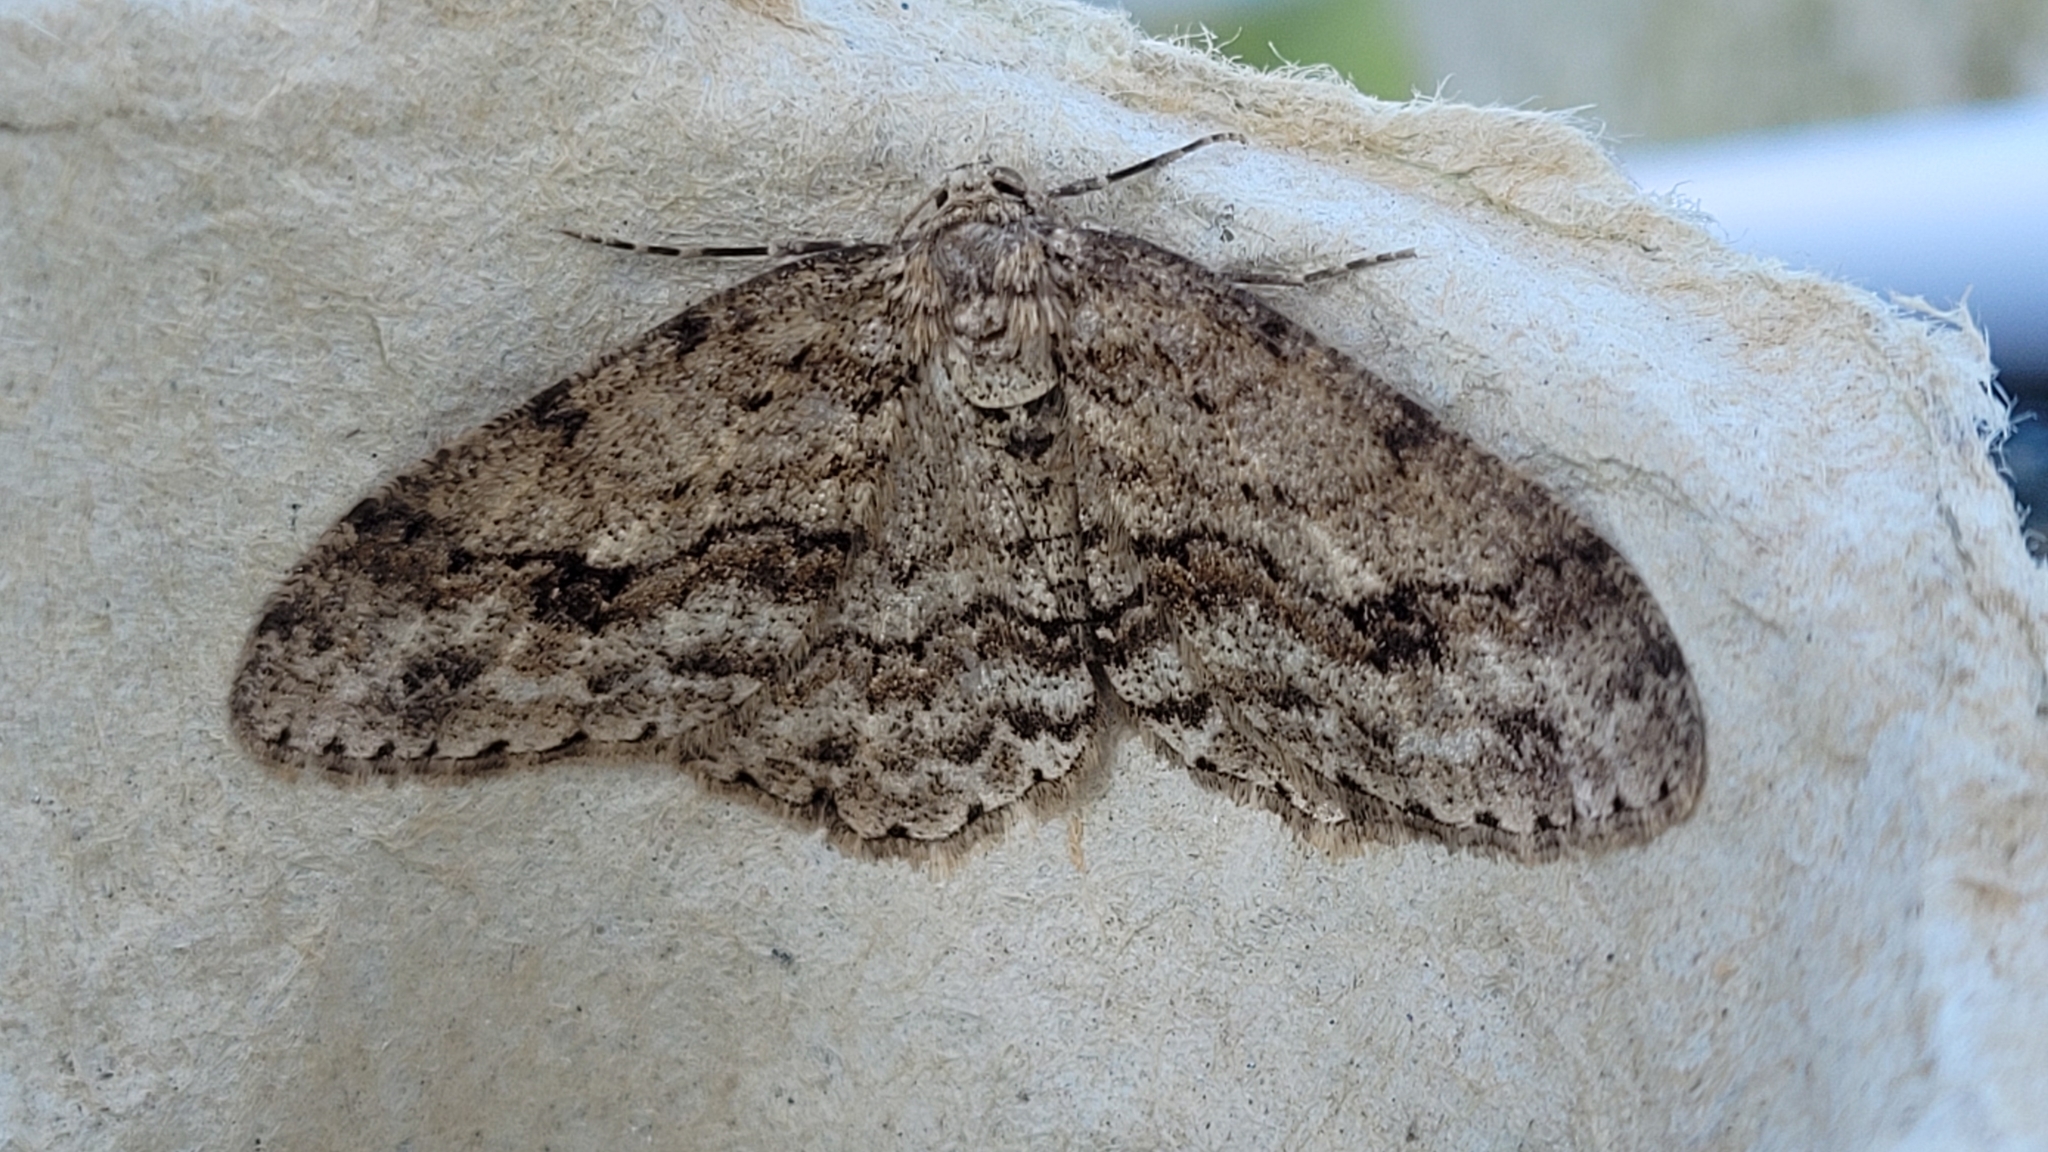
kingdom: Animalia
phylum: Arthropoda
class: Insecta
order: Lepidoptera
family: Geometridae
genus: Ectropis
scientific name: Ectropis crepuscularia
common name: Engrailed
